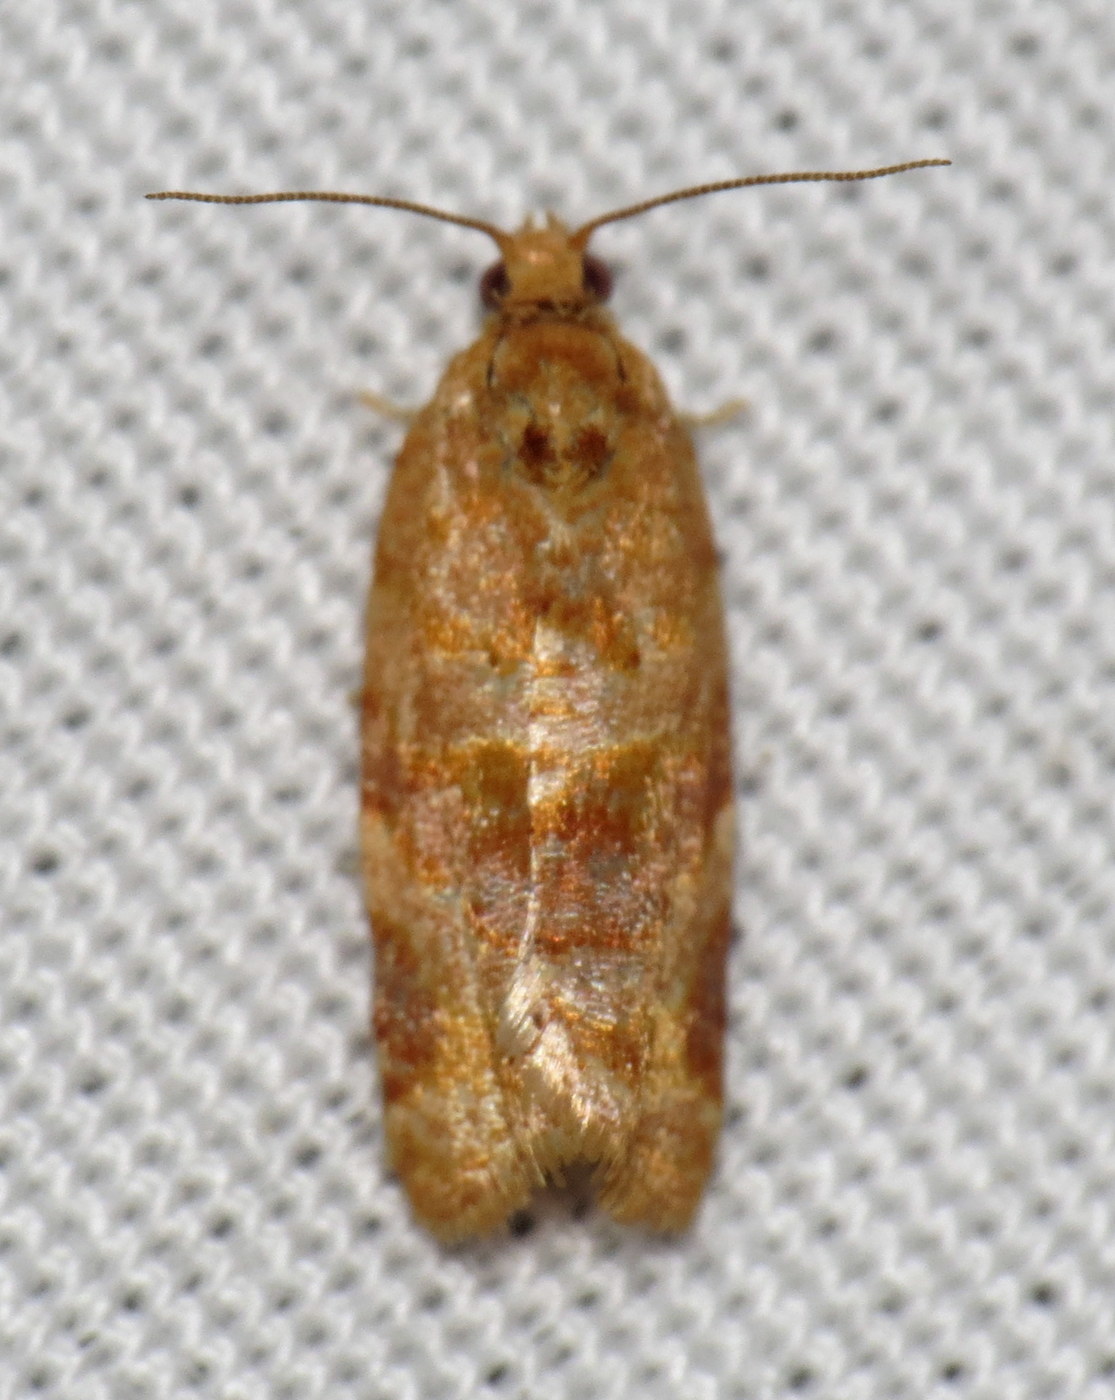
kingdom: Animalia
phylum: Arthropoda
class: Insecta
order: Lepidoptera
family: Tortricidae
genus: Argyrotaenia
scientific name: Argyrotaenia pinatubana
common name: Pine tube moth
